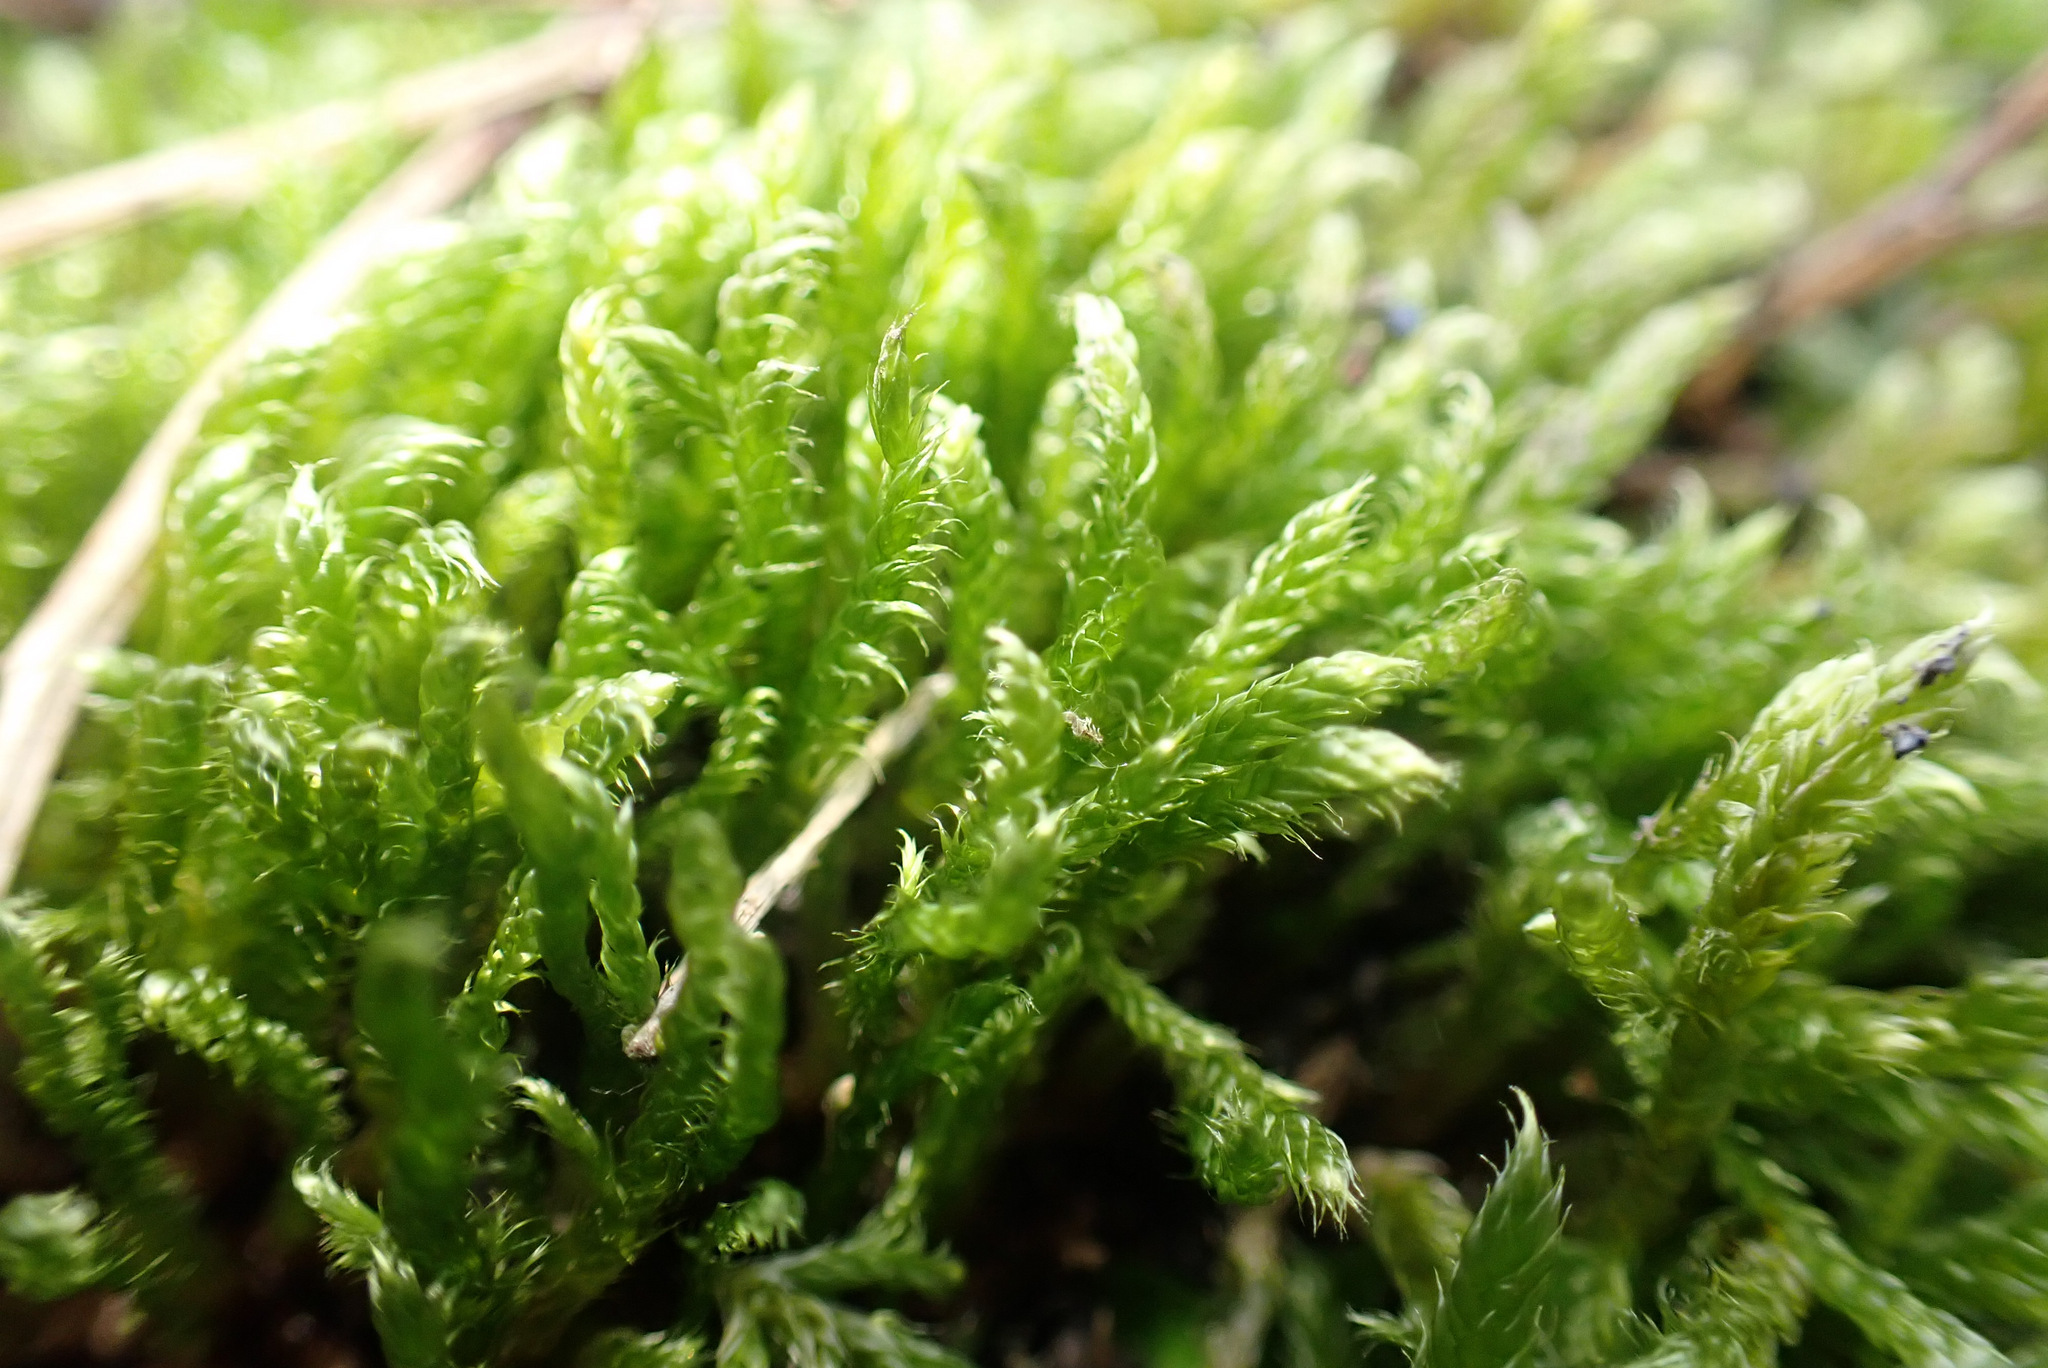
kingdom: Plantae
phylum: Bryophyta
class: Bryopsida
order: Hypnales
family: Hypnaceae
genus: Hypnum
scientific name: Hypnum cupressiforme
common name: Cypress-leaved plait-moss
